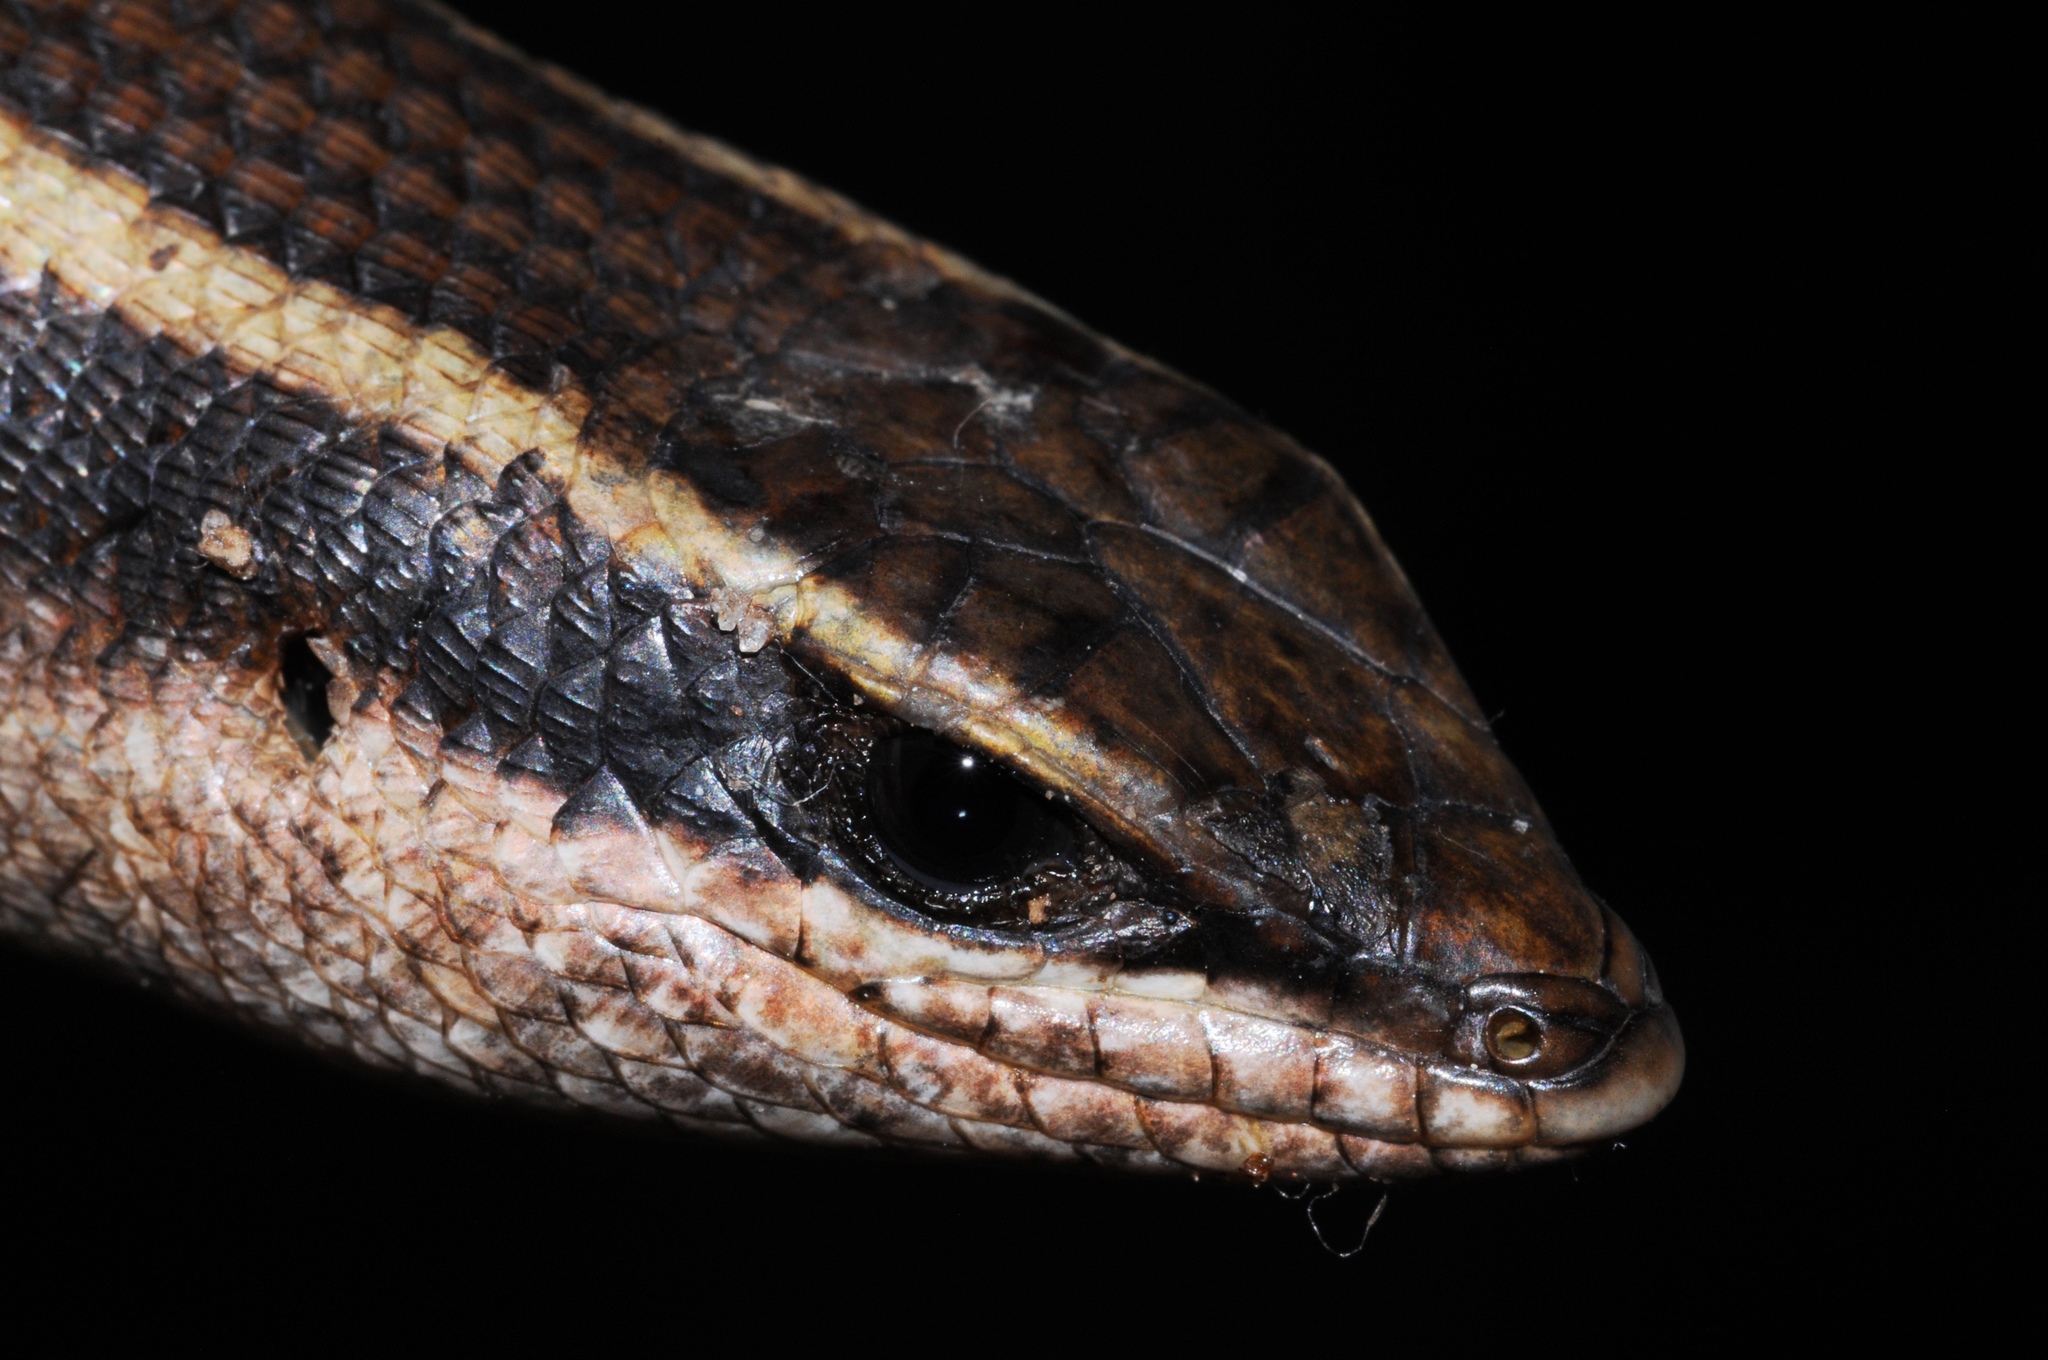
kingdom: Animalia
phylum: Chordata
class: Squamata
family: Scincidae
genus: Trachylepis
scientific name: Trachylepis striata
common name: African striped mabuya
